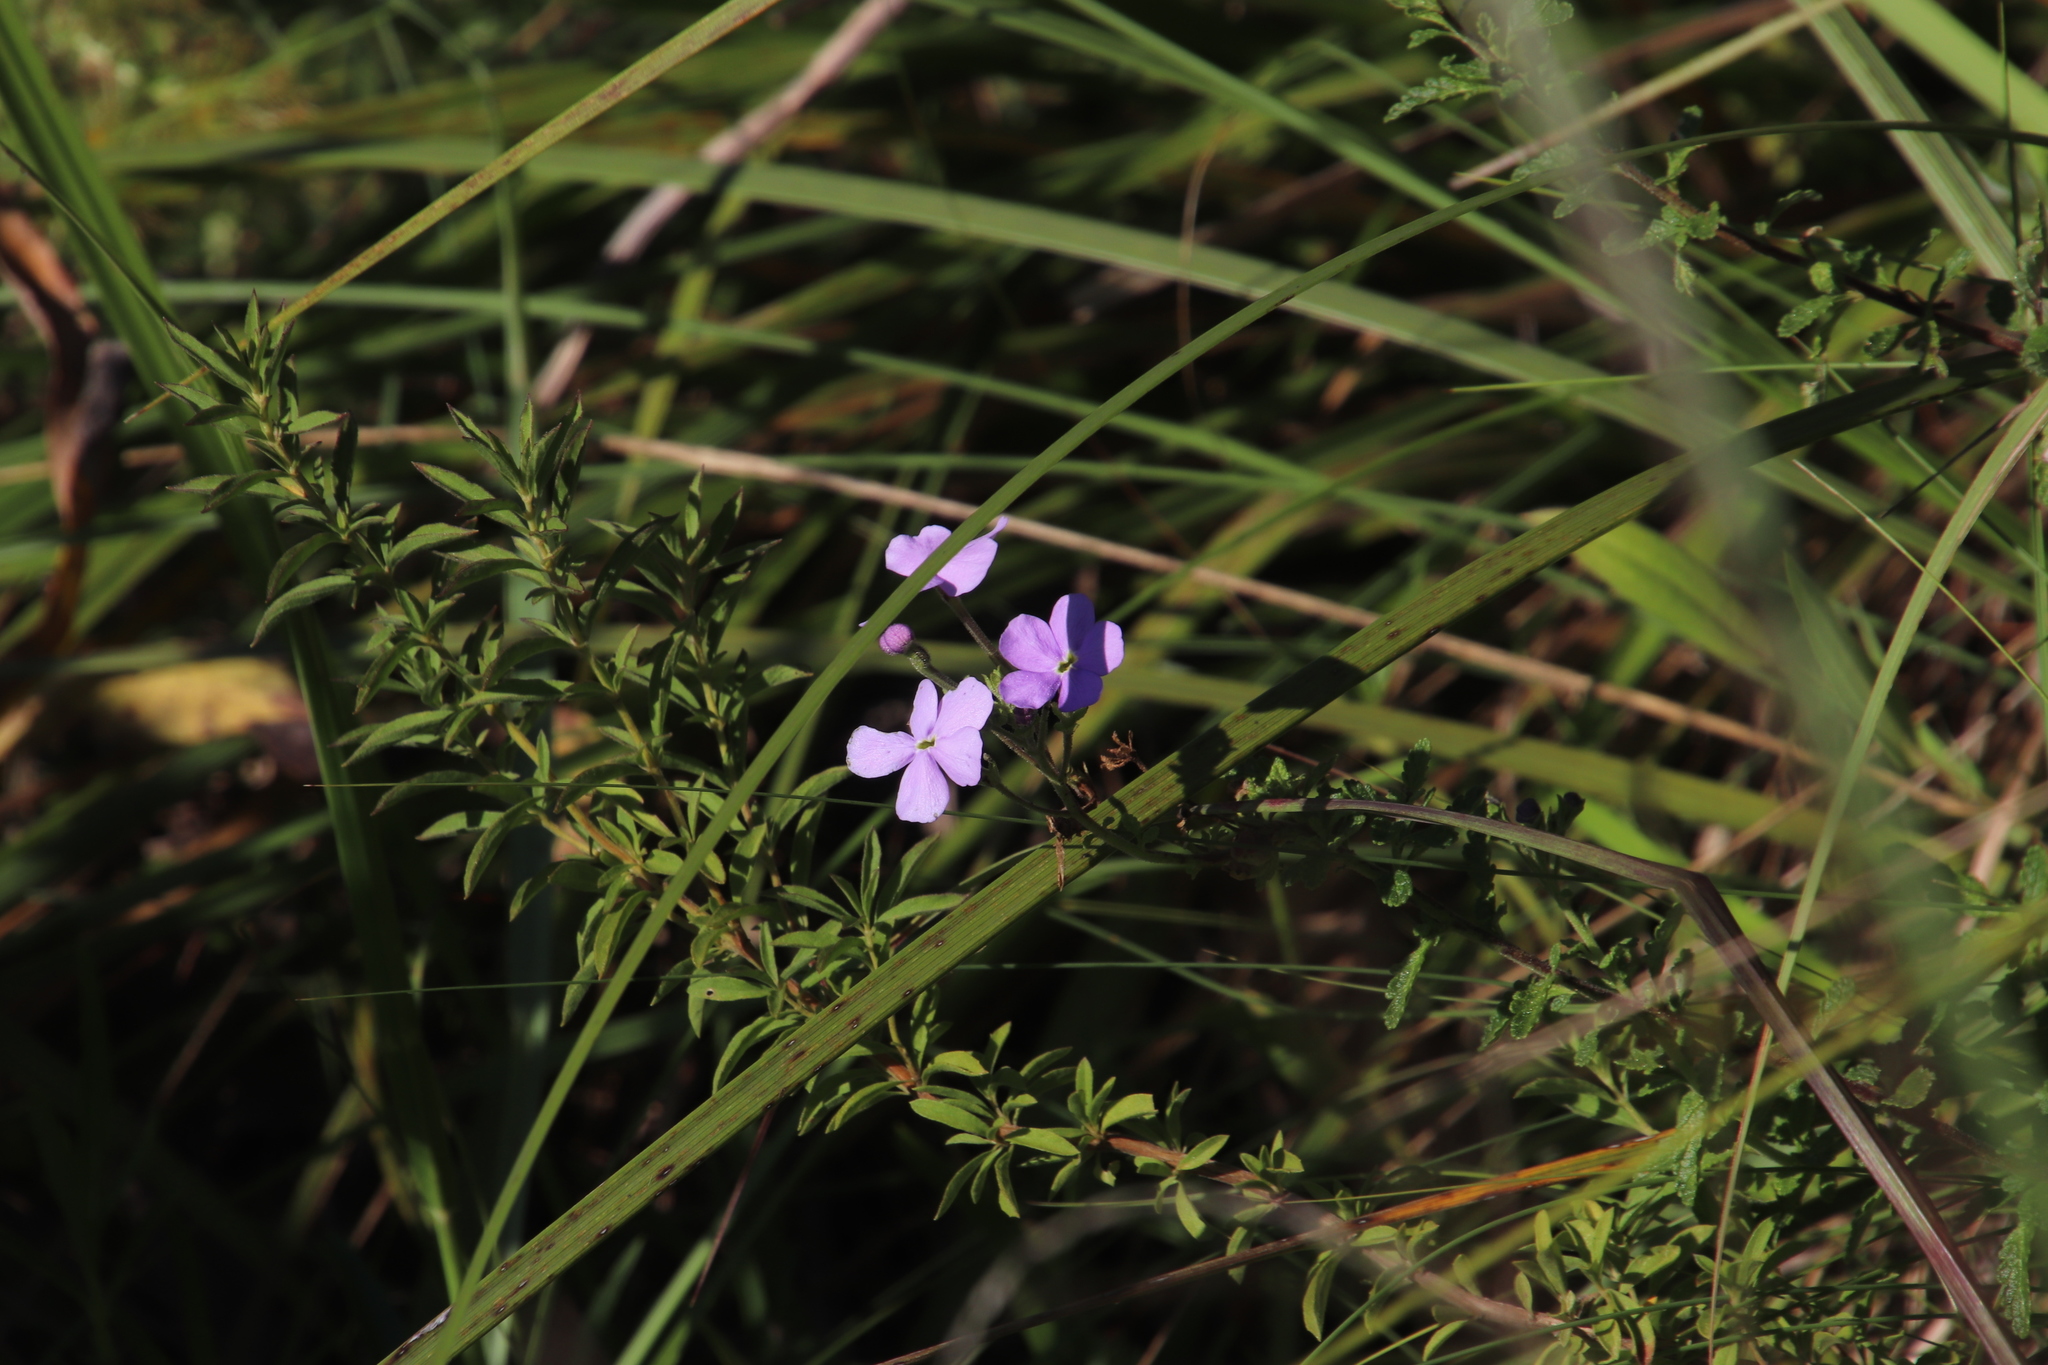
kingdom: Plantae
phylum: Tracheophyta
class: Magnoliopsida
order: Lamiales
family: Scrophulariaceae
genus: Jamesbrittenia
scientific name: Jamesbrittenia grandiflora
